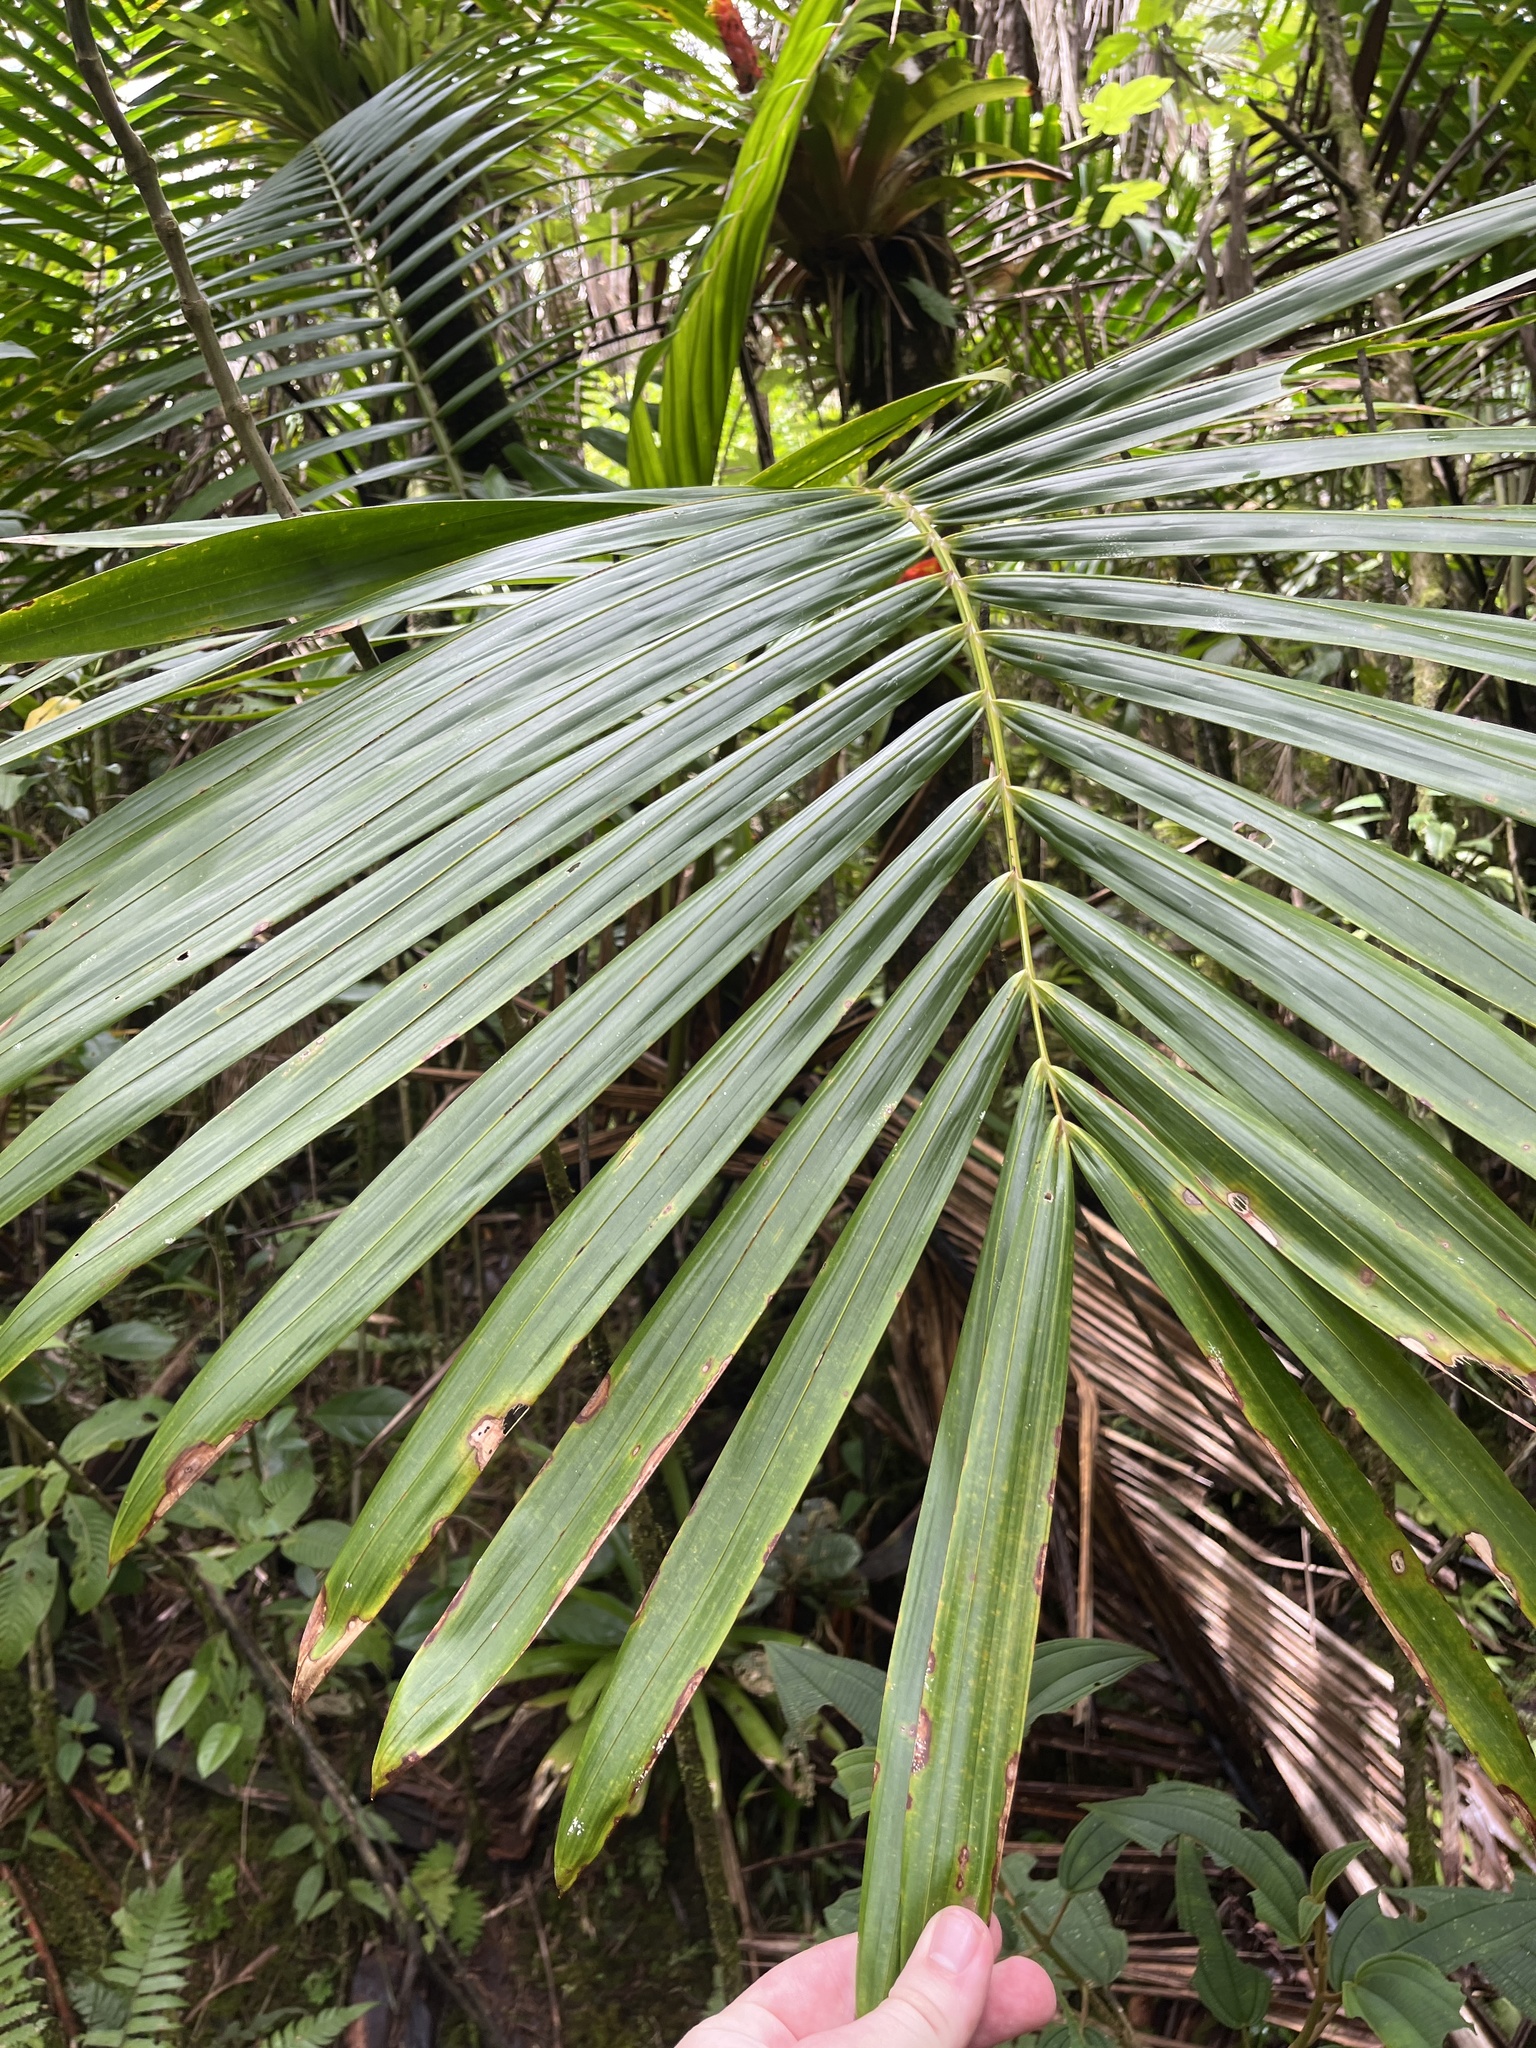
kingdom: Plantae
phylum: Tracheophyta
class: Liliopsida
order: Arecales
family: Arecaceae
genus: Prestoea
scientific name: Prestoea acuminata
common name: Sierran palm
